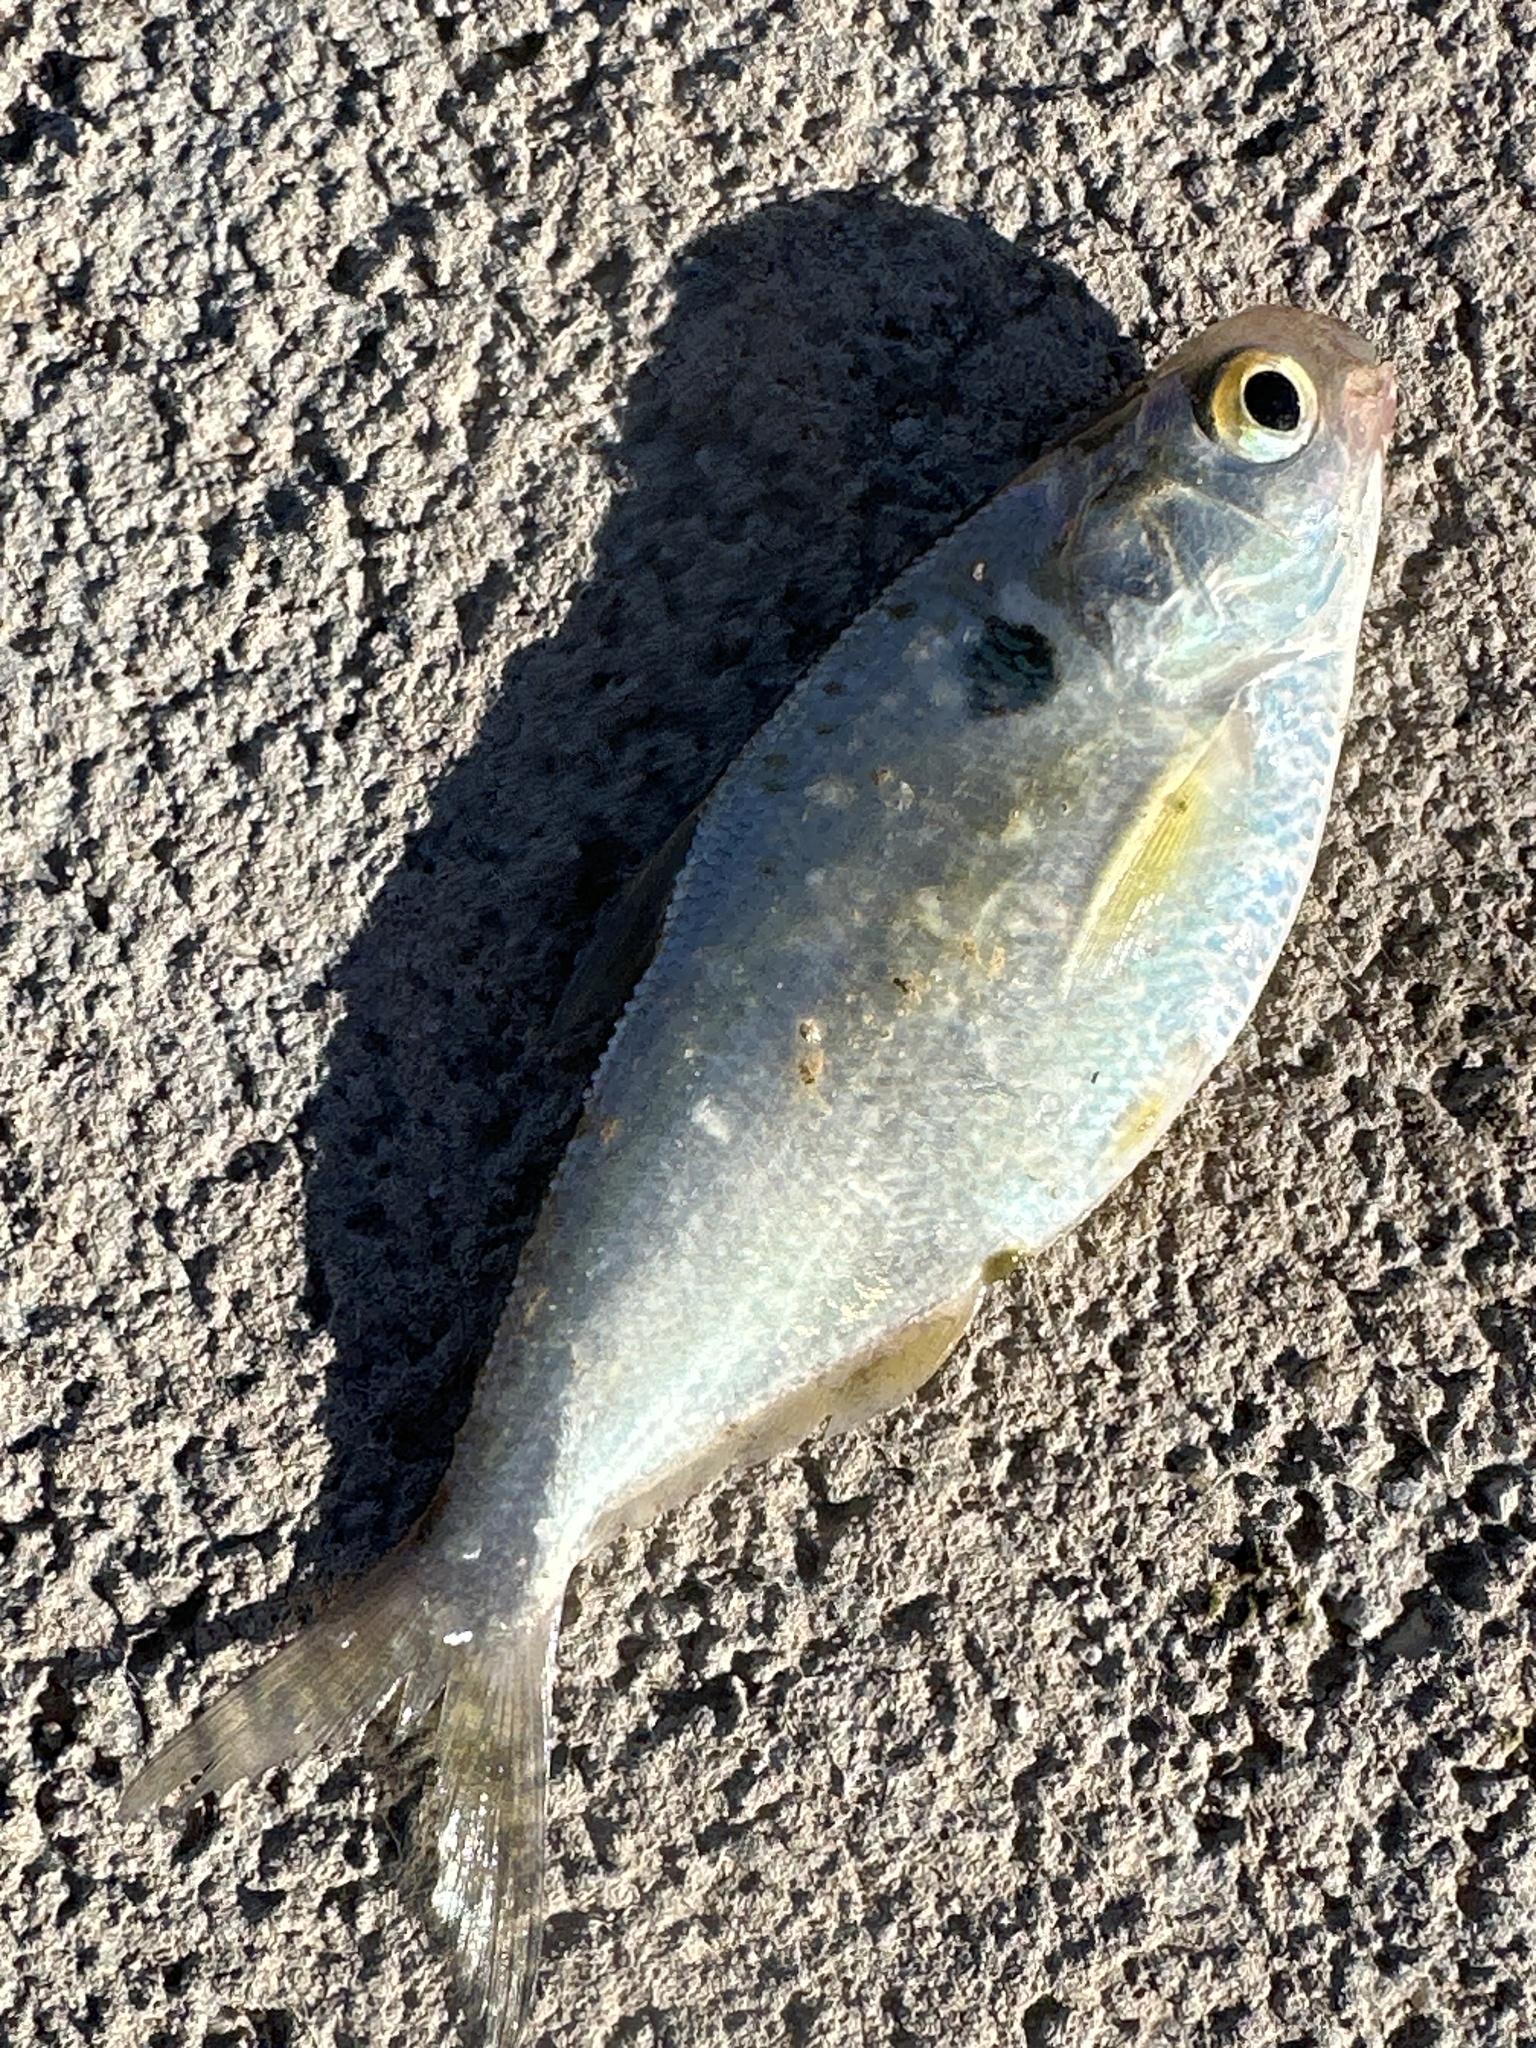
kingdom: Animalia
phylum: Chordata
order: Clupeiformes
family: Clupeidae
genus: Dorosoma
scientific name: Dorosoma cepedianum
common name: Gizzard shad
